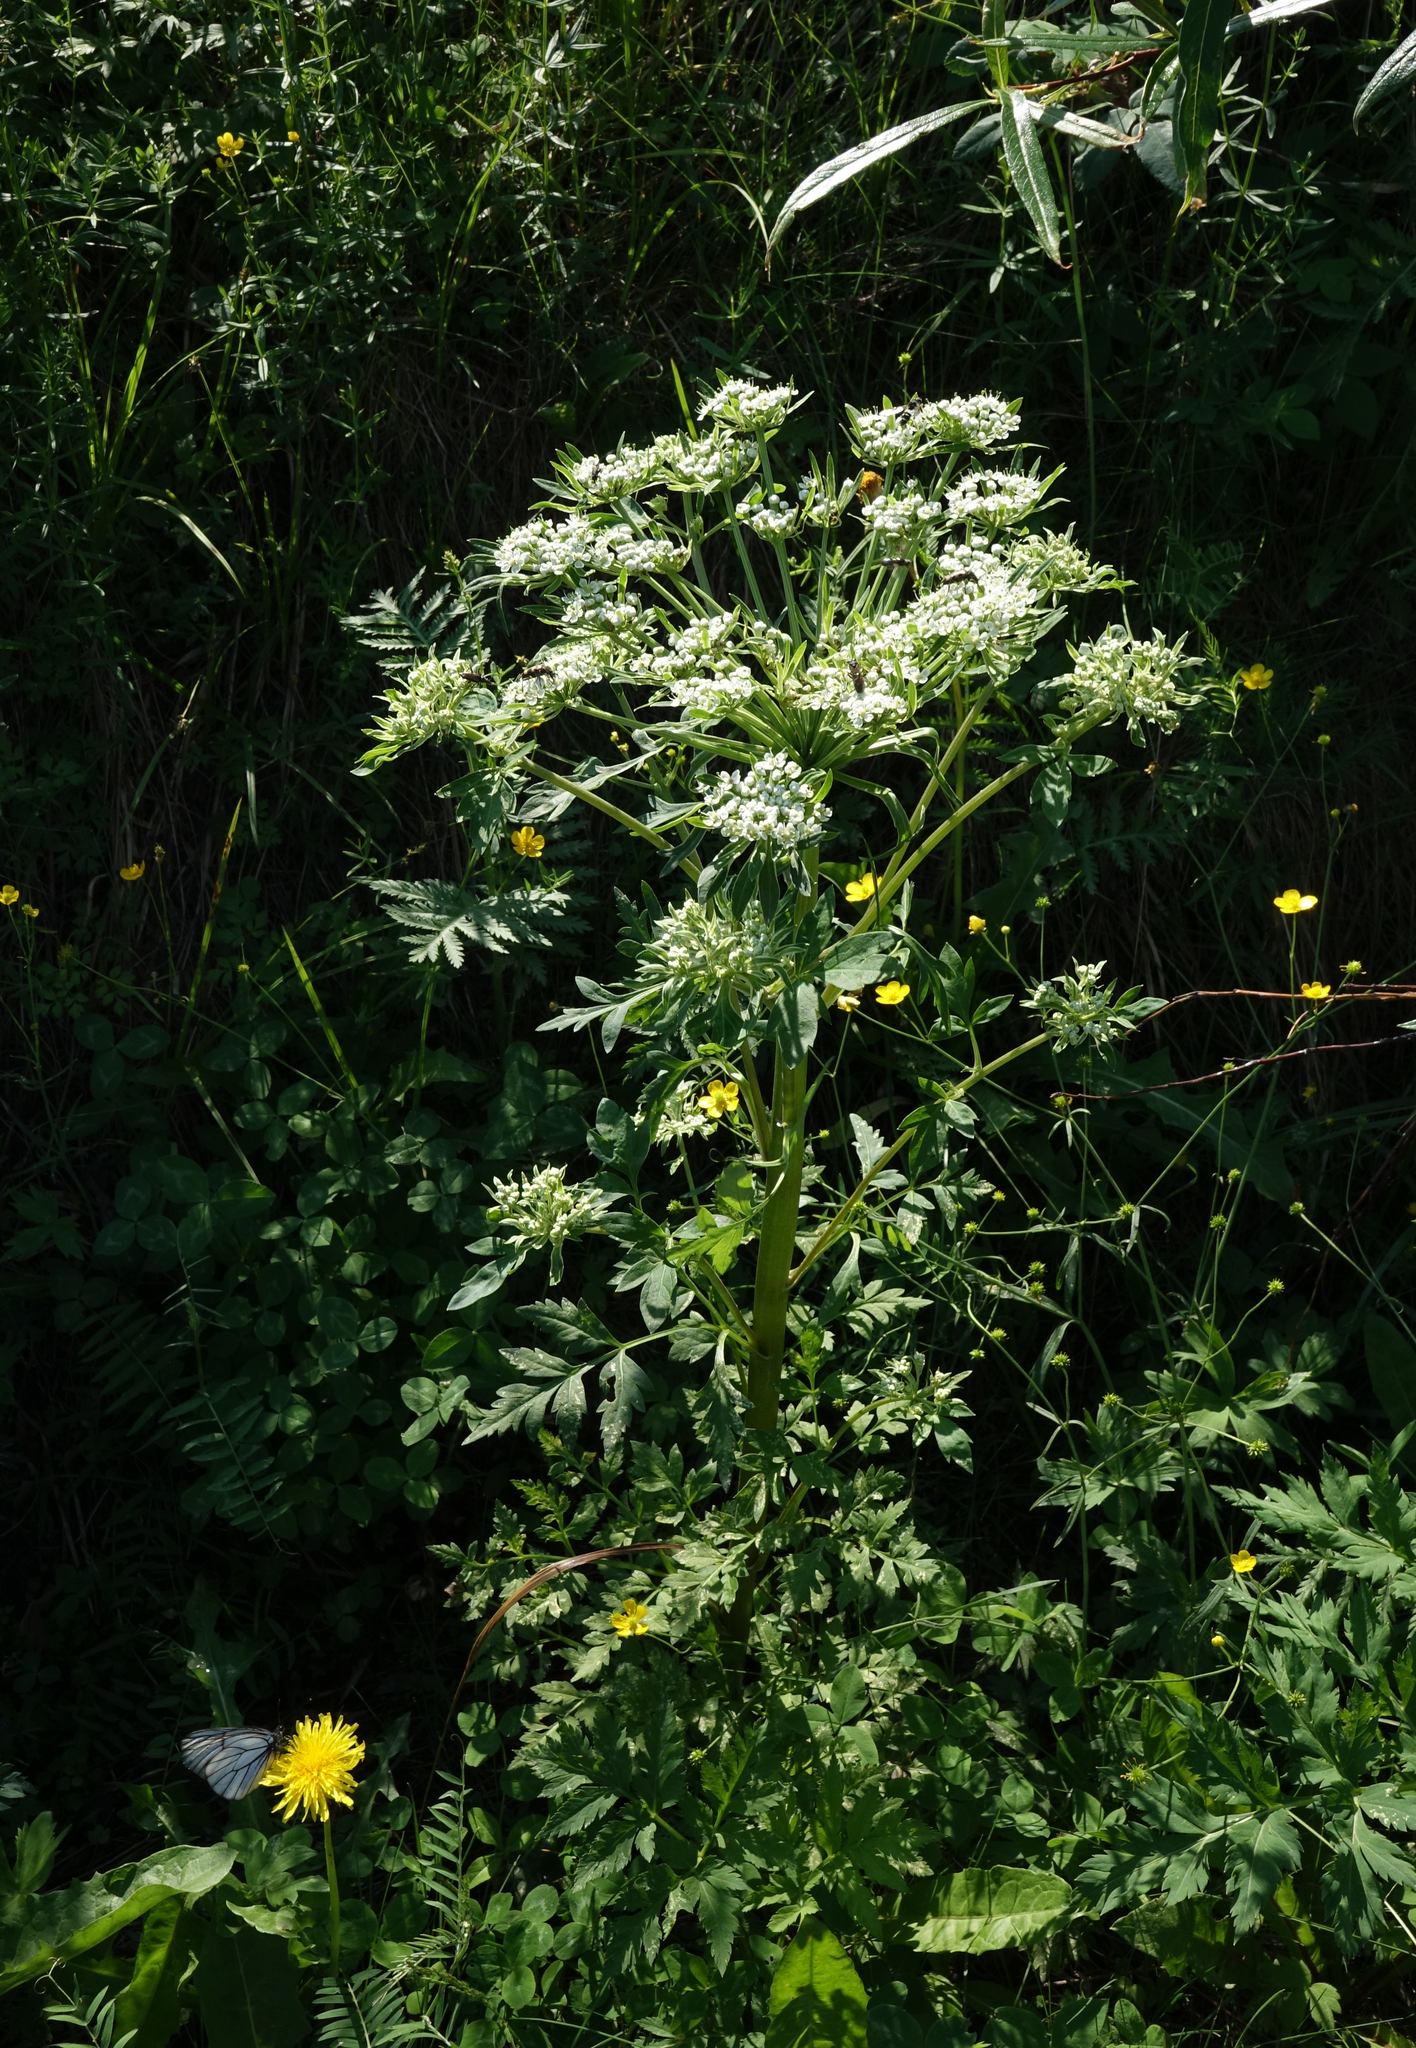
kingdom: Plantae
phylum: Tracheophyta
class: Magnoliopsida
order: Apiales
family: Apiaceae
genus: Pleurospermum
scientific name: Pleurospermum uralense
